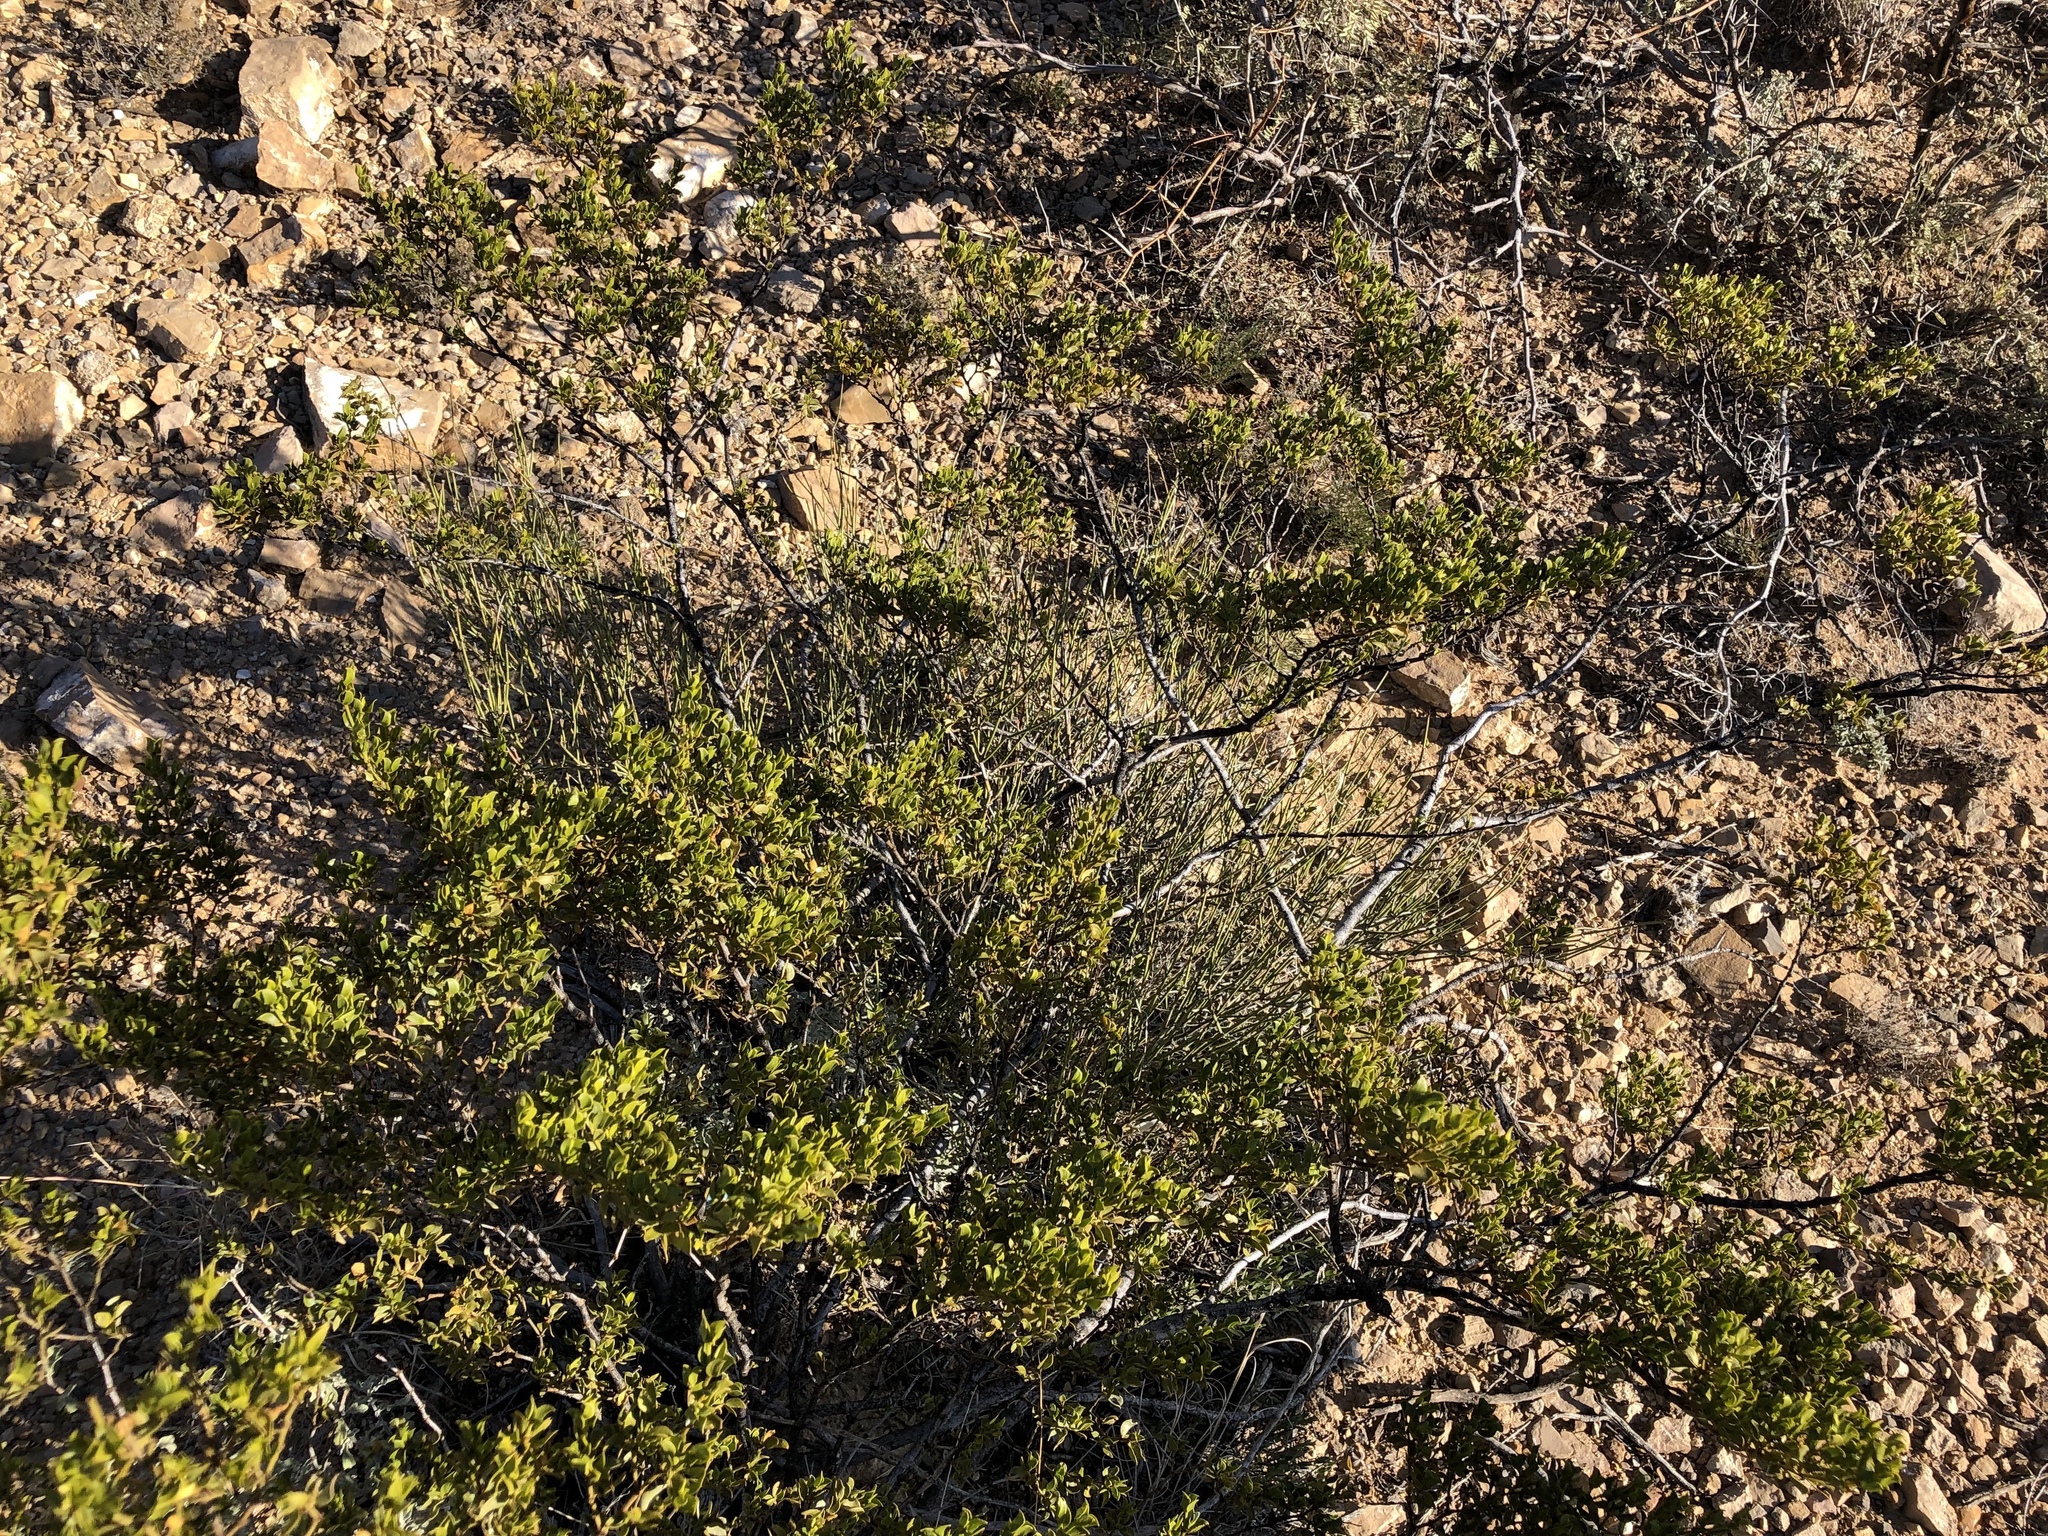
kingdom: Plantae
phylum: Tracheophyta
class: Magnoliopsida
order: Zygophyllales
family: Zygophyllaceae
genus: Larrea
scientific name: Larrea tridentata
